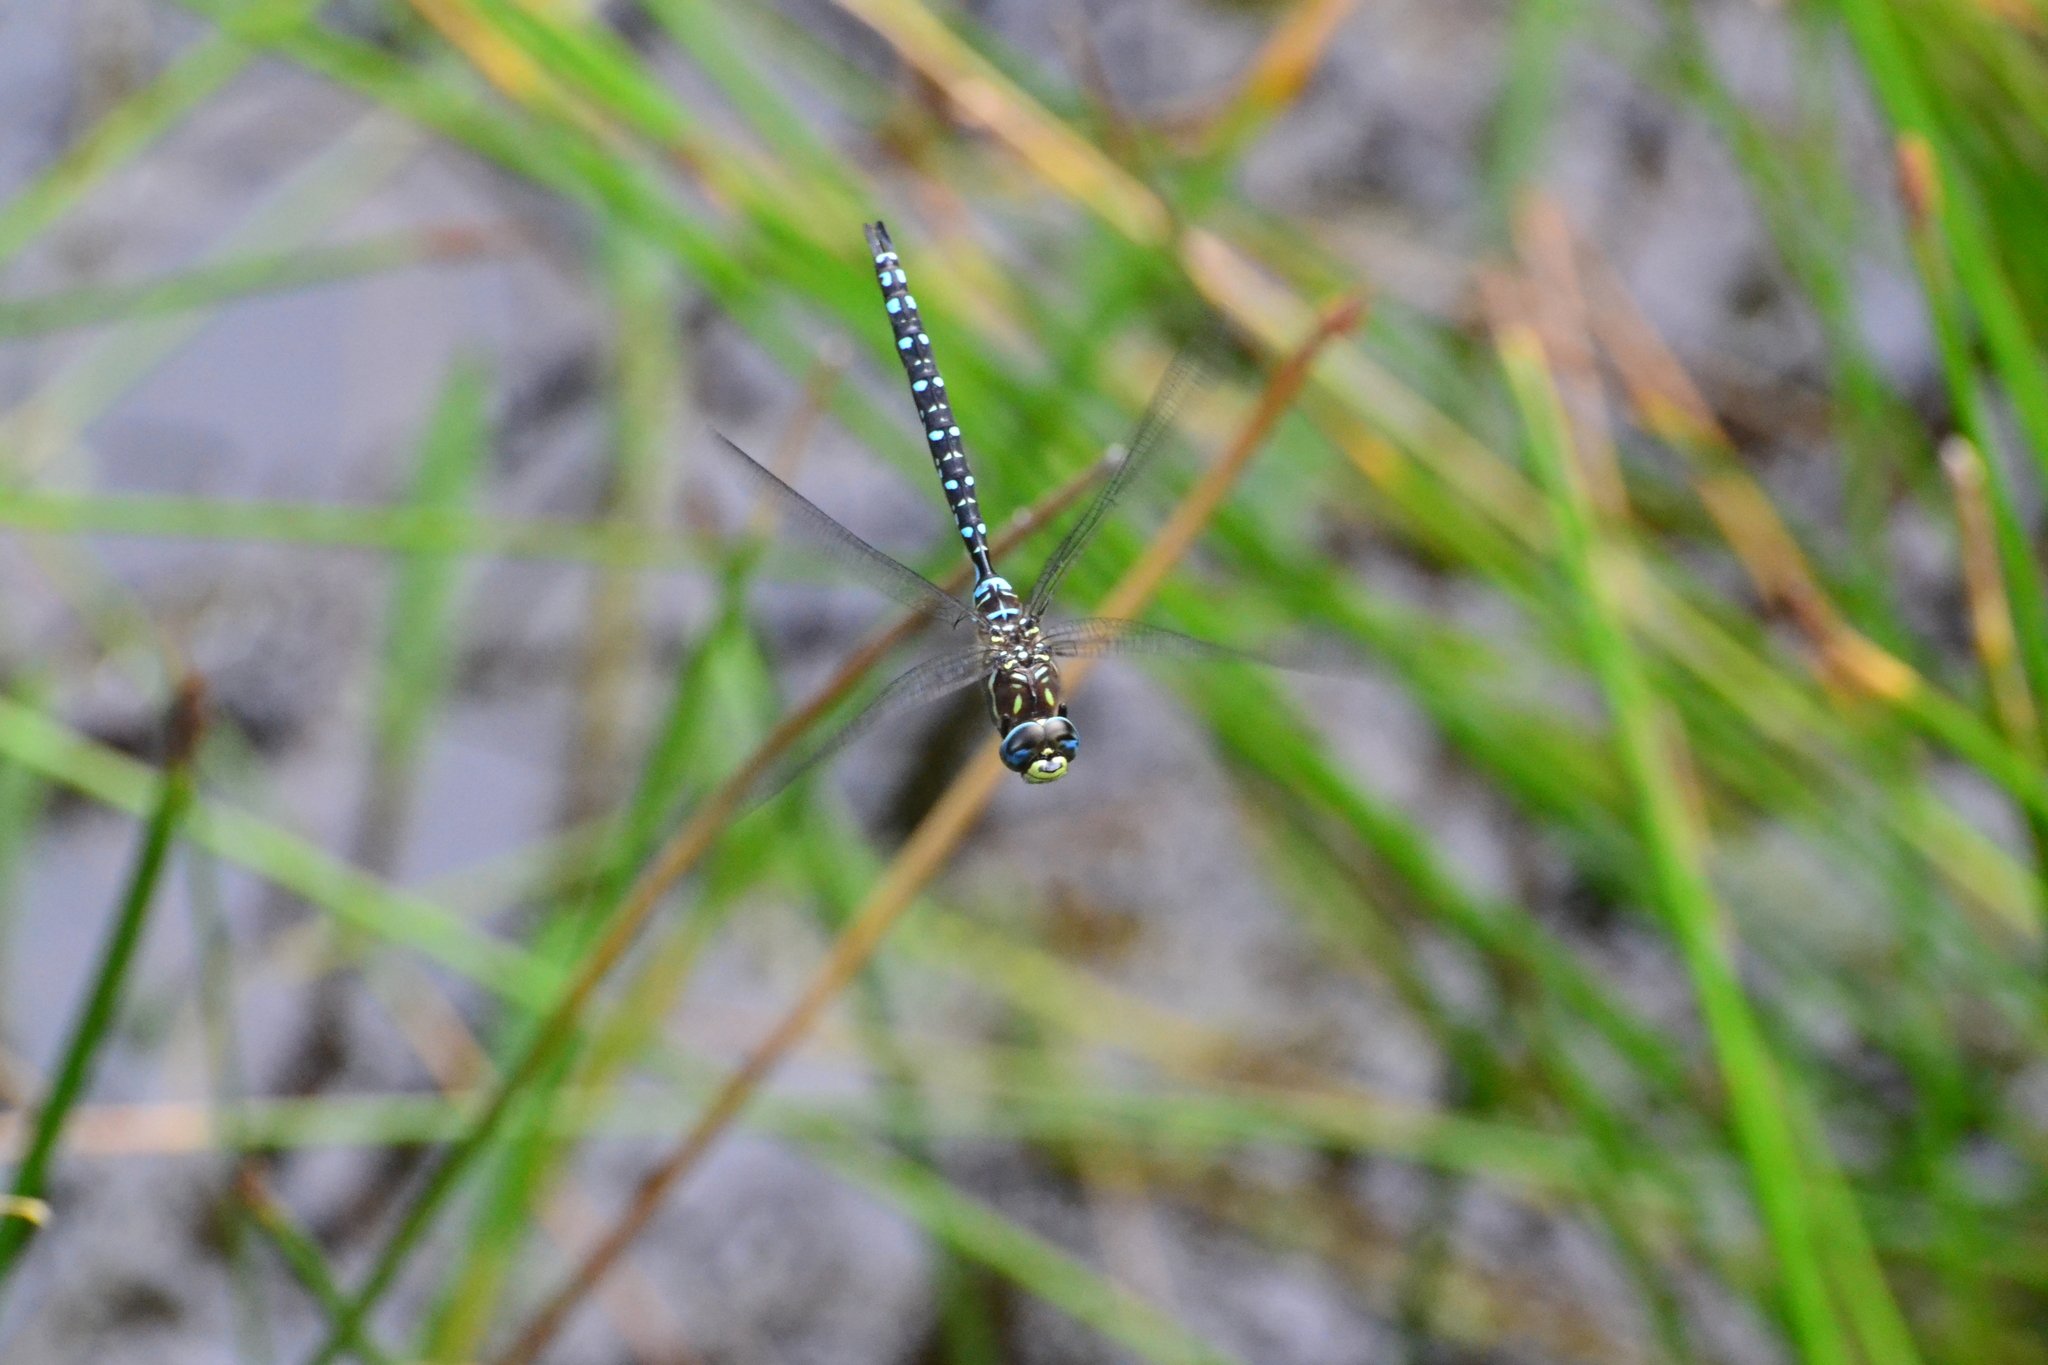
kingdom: Animalia
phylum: Arthropoda
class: Insecta
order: Odonata
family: Aeshnidae
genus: Aeshna
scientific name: Aeshna palmata
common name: Paddle-tailed darner
